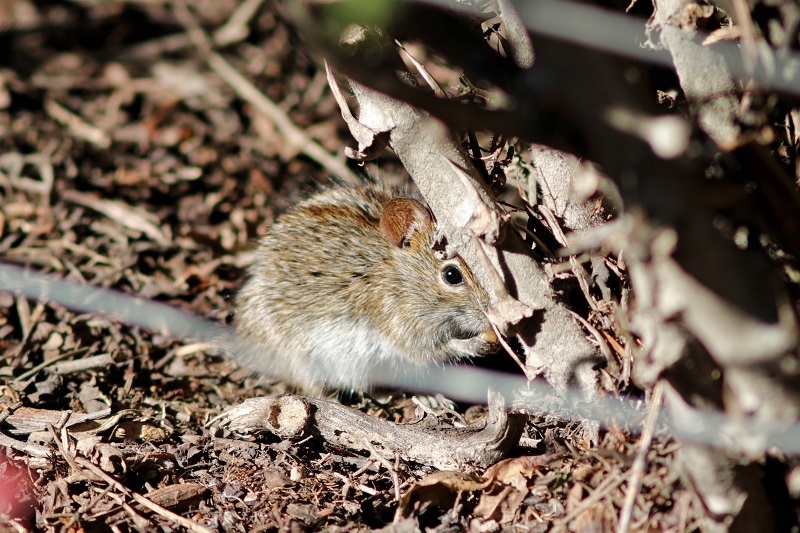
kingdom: Animalia
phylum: Chordata
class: Mammalia
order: Rodentia
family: Muridae
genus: Rhabdomys
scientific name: Rhabdomys pumilio
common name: Xeric four-striped grass rat
